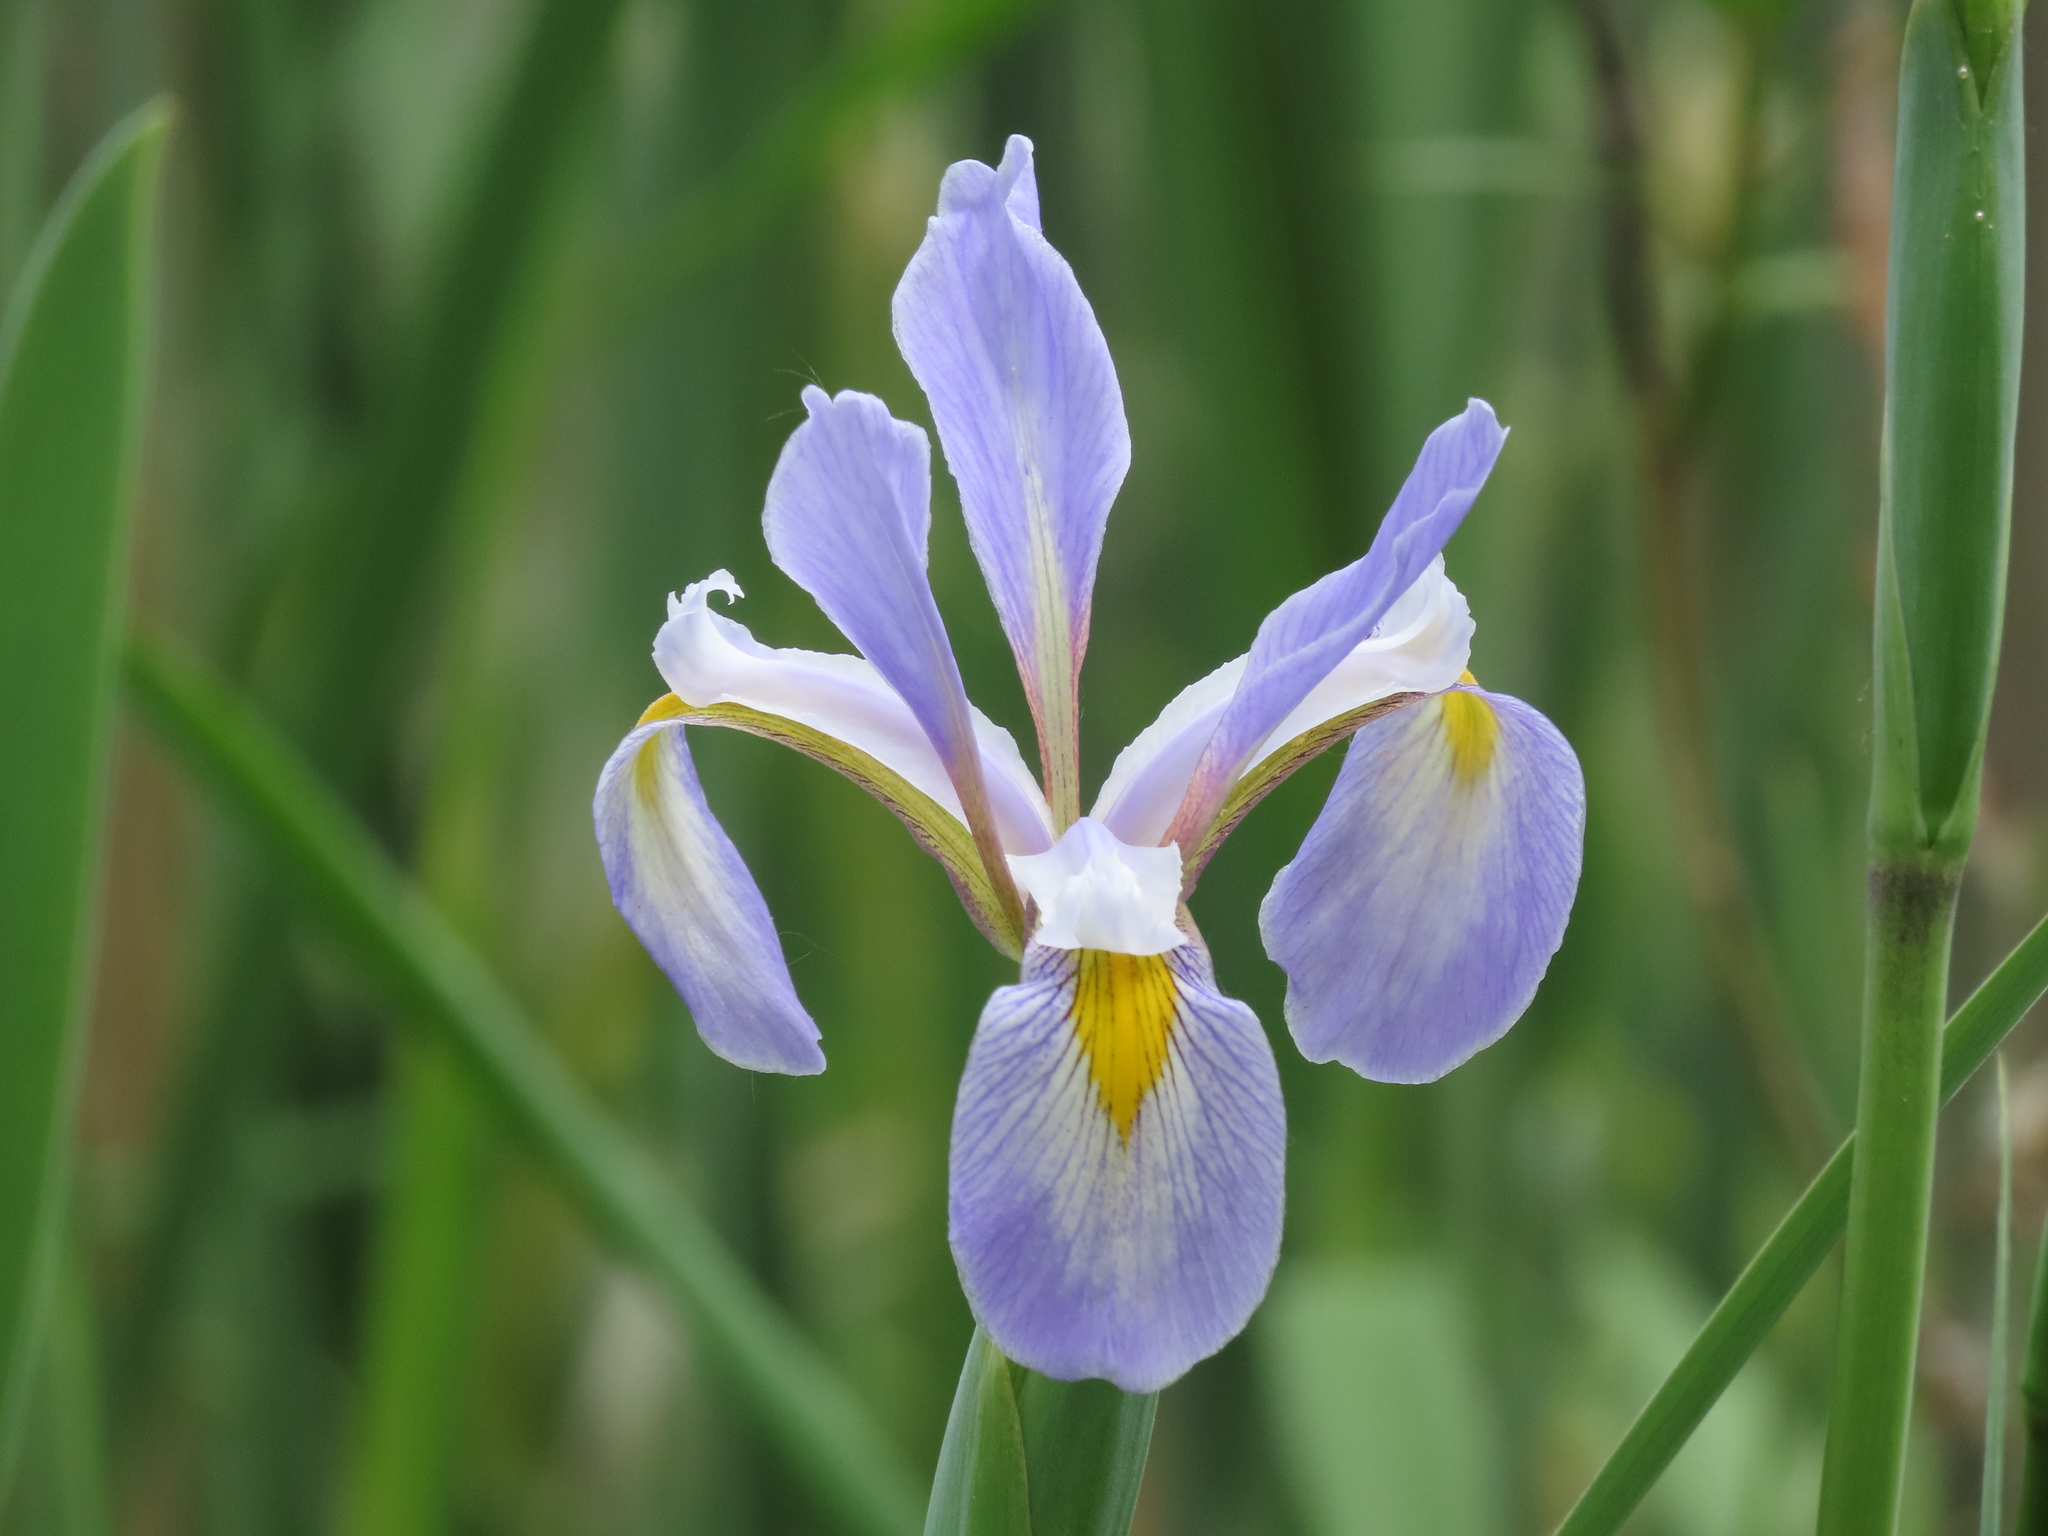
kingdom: Plantae
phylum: Tracheophyta
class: Liliopsida
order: Asparagales
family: Iridaceae
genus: Iris
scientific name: Iris virginica
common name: Southern blue flag
